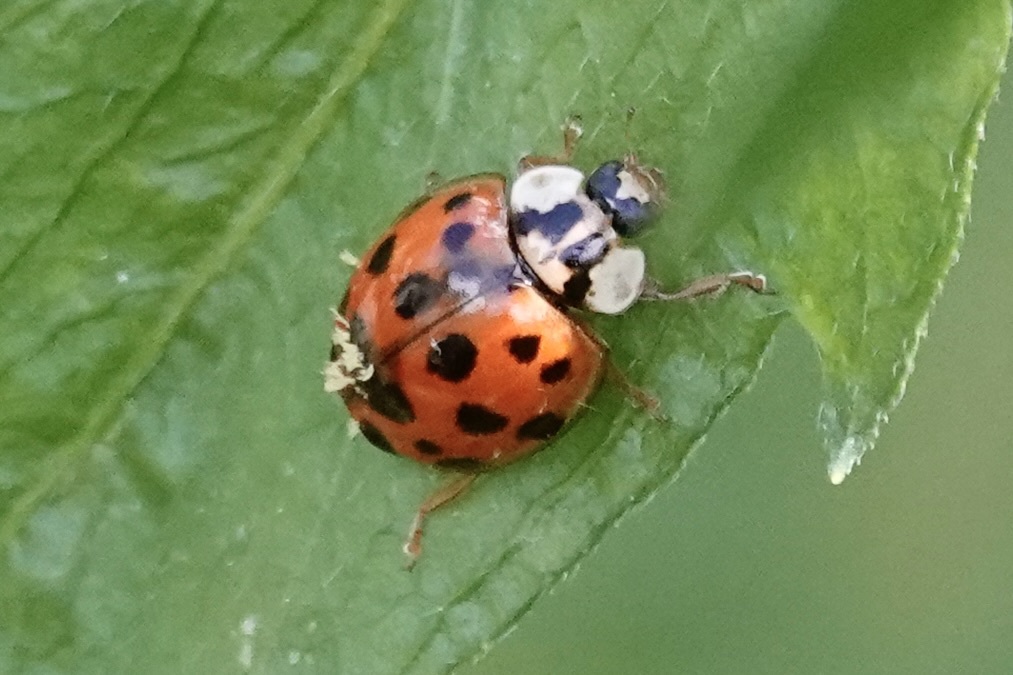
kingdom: Fungi
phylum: Ascomycota
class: Laboulbeniomycetes
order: Laboulbeniales
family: Laboulbeniaceae
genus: Hesperomyces
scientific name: Hesperomyces harmoniae
